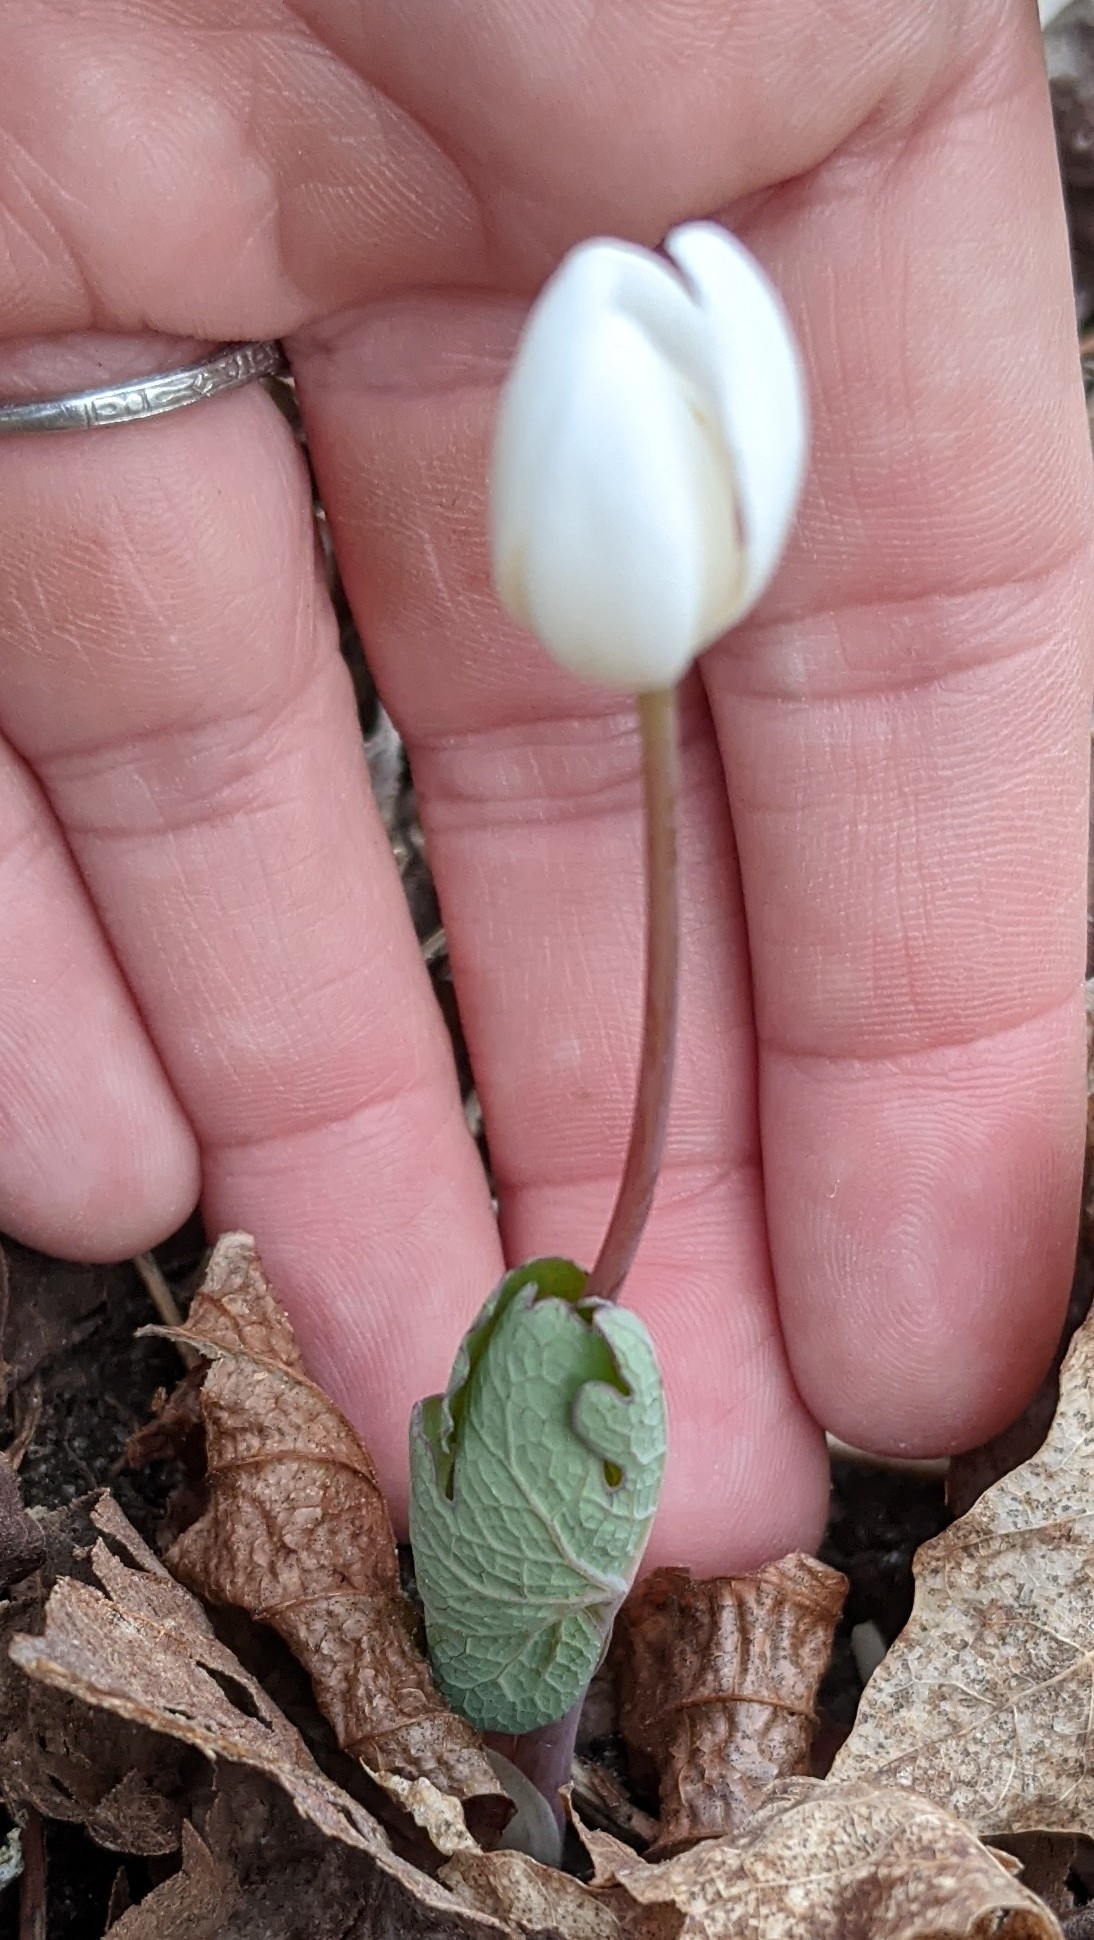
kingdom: Plantae
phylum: Tracheophyta
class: Magnoliopsida
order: Ranunculales
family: Papaveraceae
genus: Sanguinaria
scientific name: Sanguinaria canadensis
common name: Bloodroot
